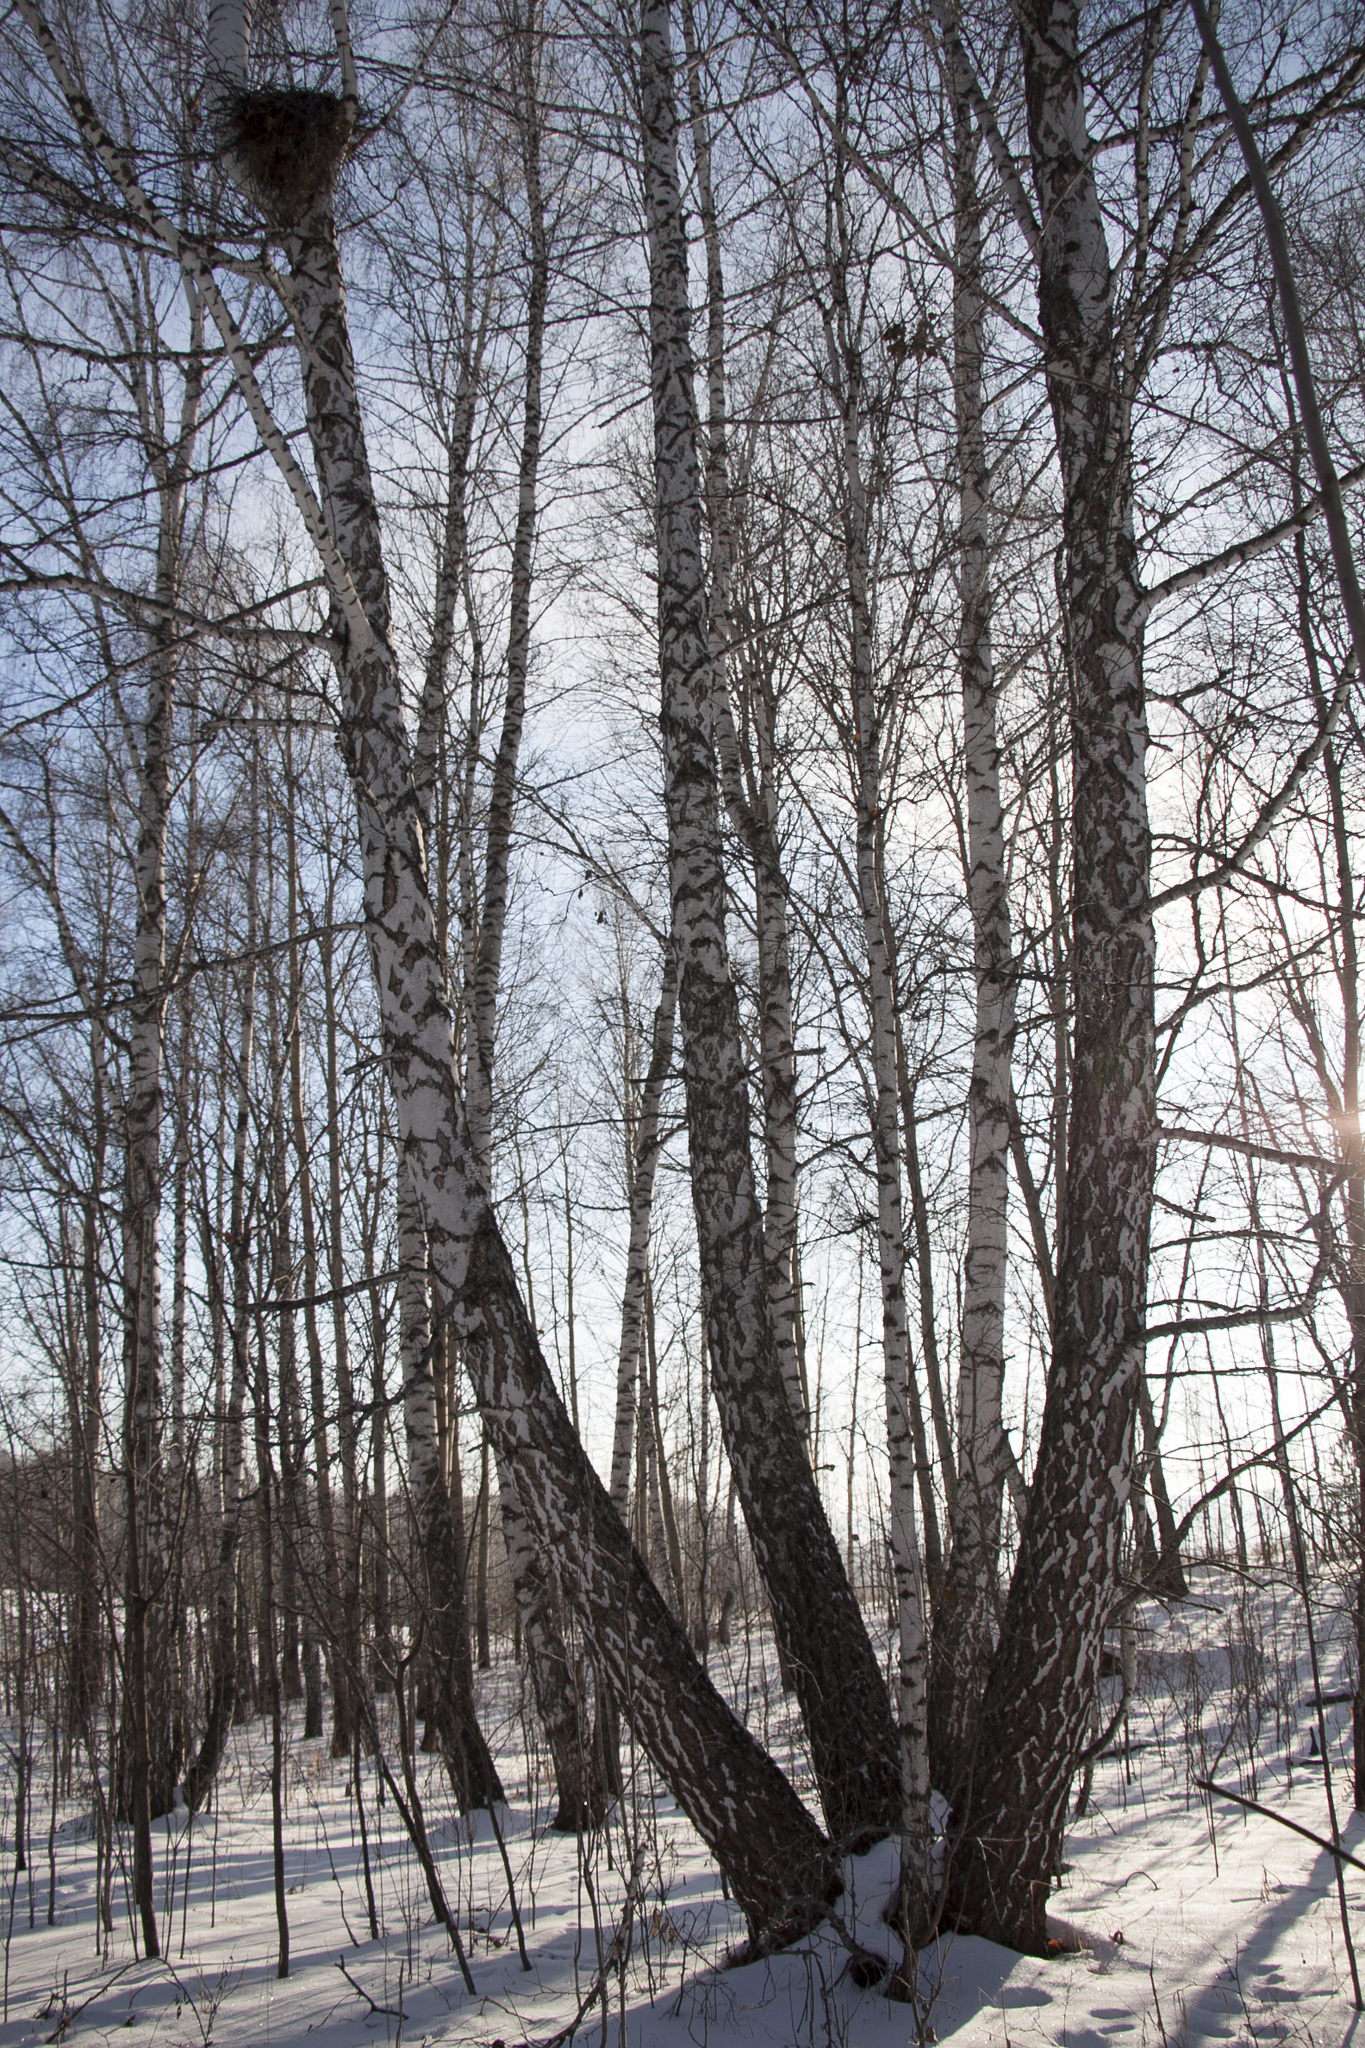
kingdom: Plantae
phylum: Tracheophyta
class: Magnoliopsida
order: Fagales
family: Betulaceae
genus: Betula
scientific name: Betula pendula
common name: Silver birch
